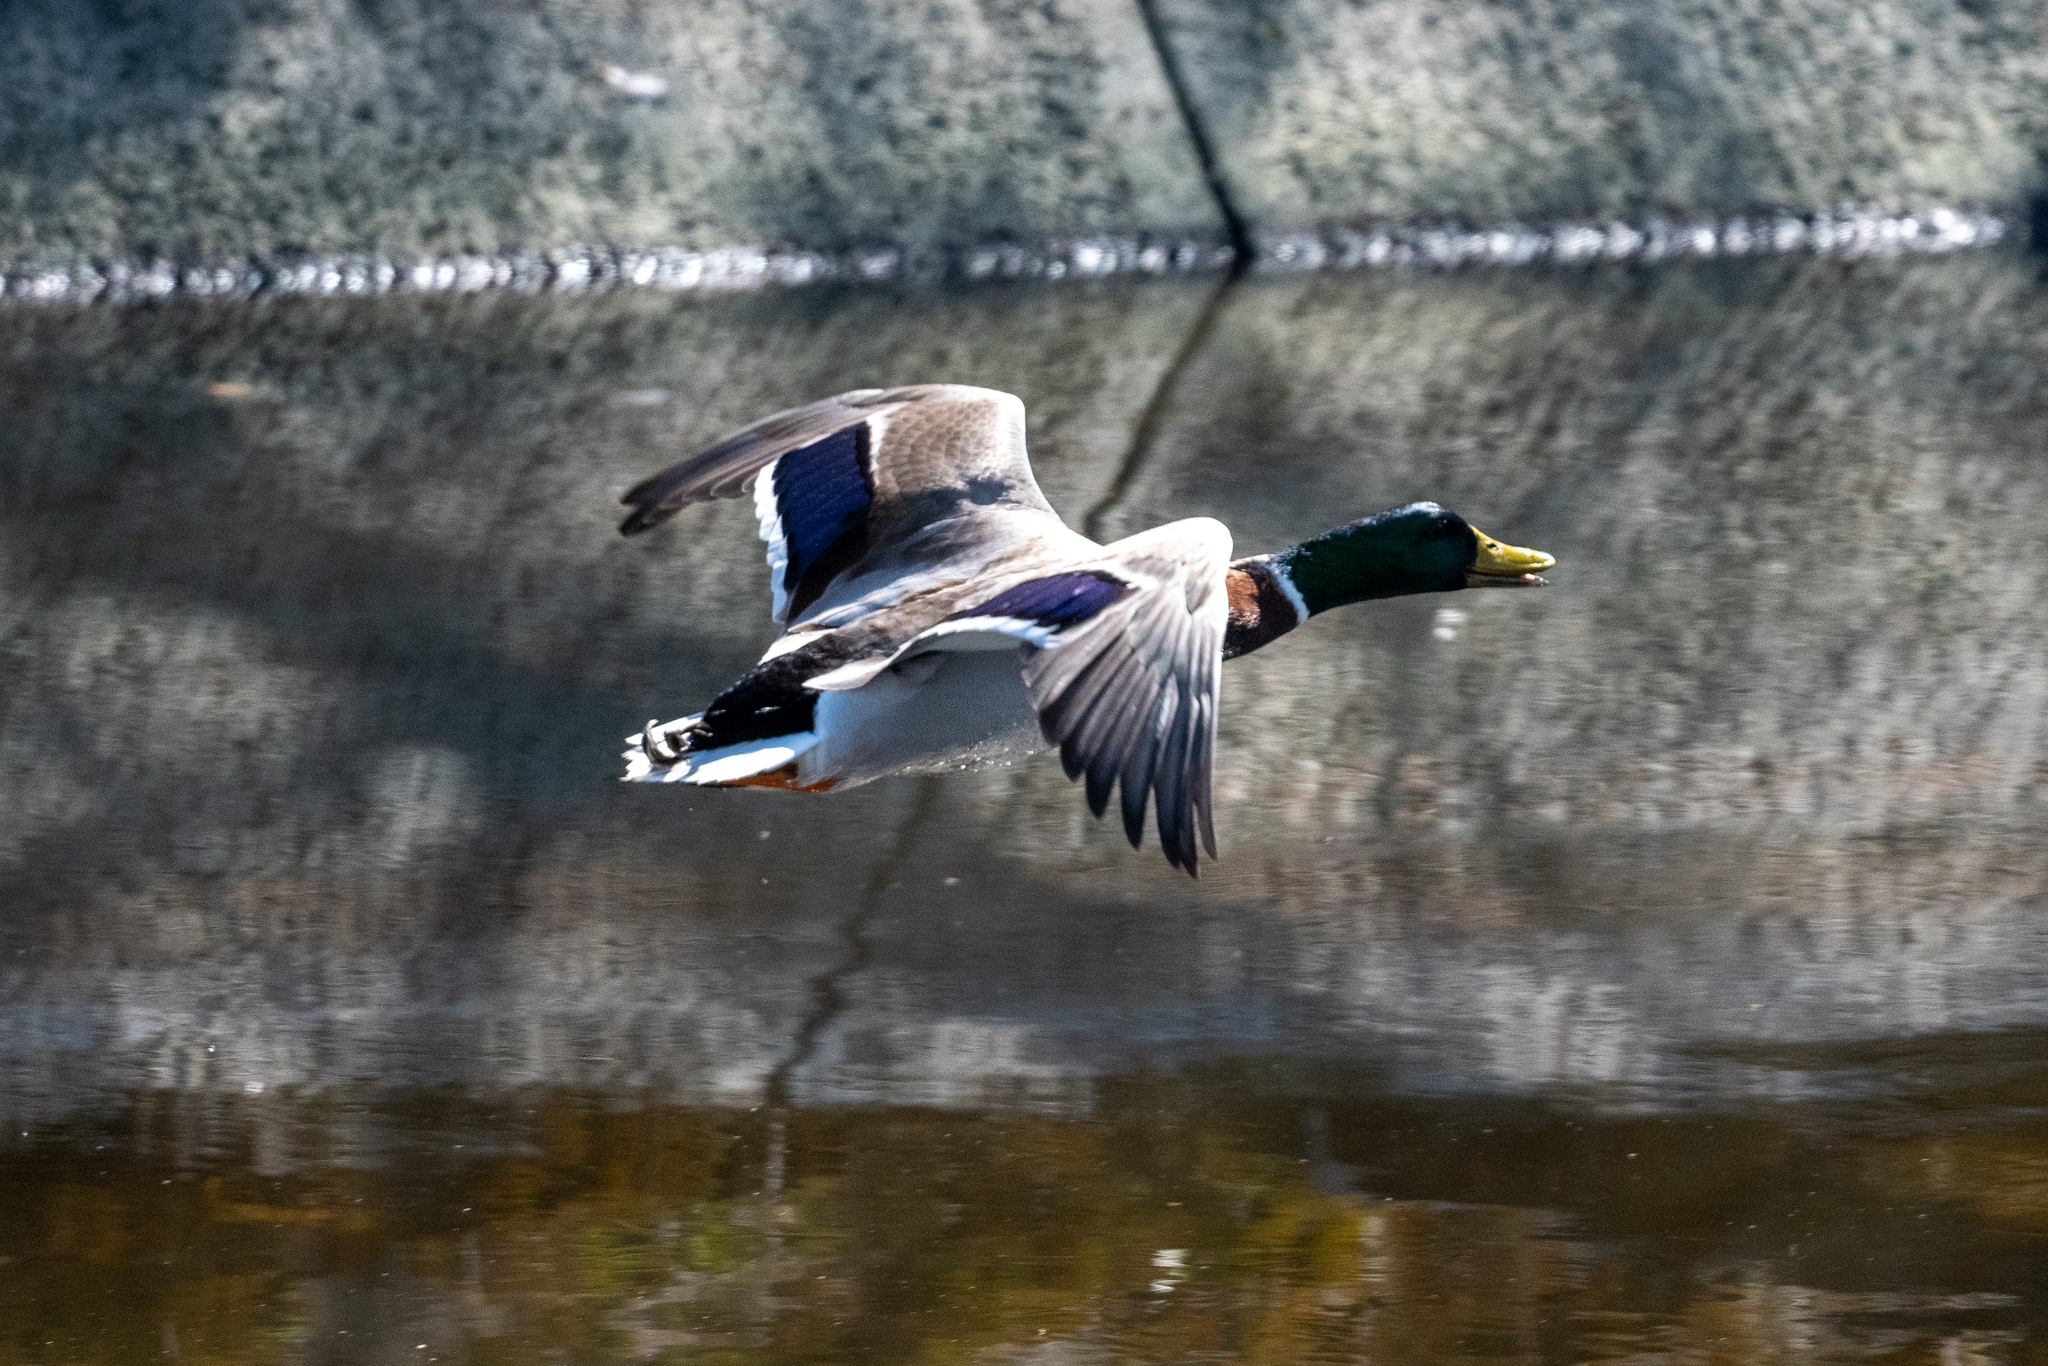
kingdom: Animalia
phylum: Chordata
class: Aves
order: Anseriformes
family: Anatidae
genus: Anas
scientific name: Anas platyrhynchos
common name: Mallard
